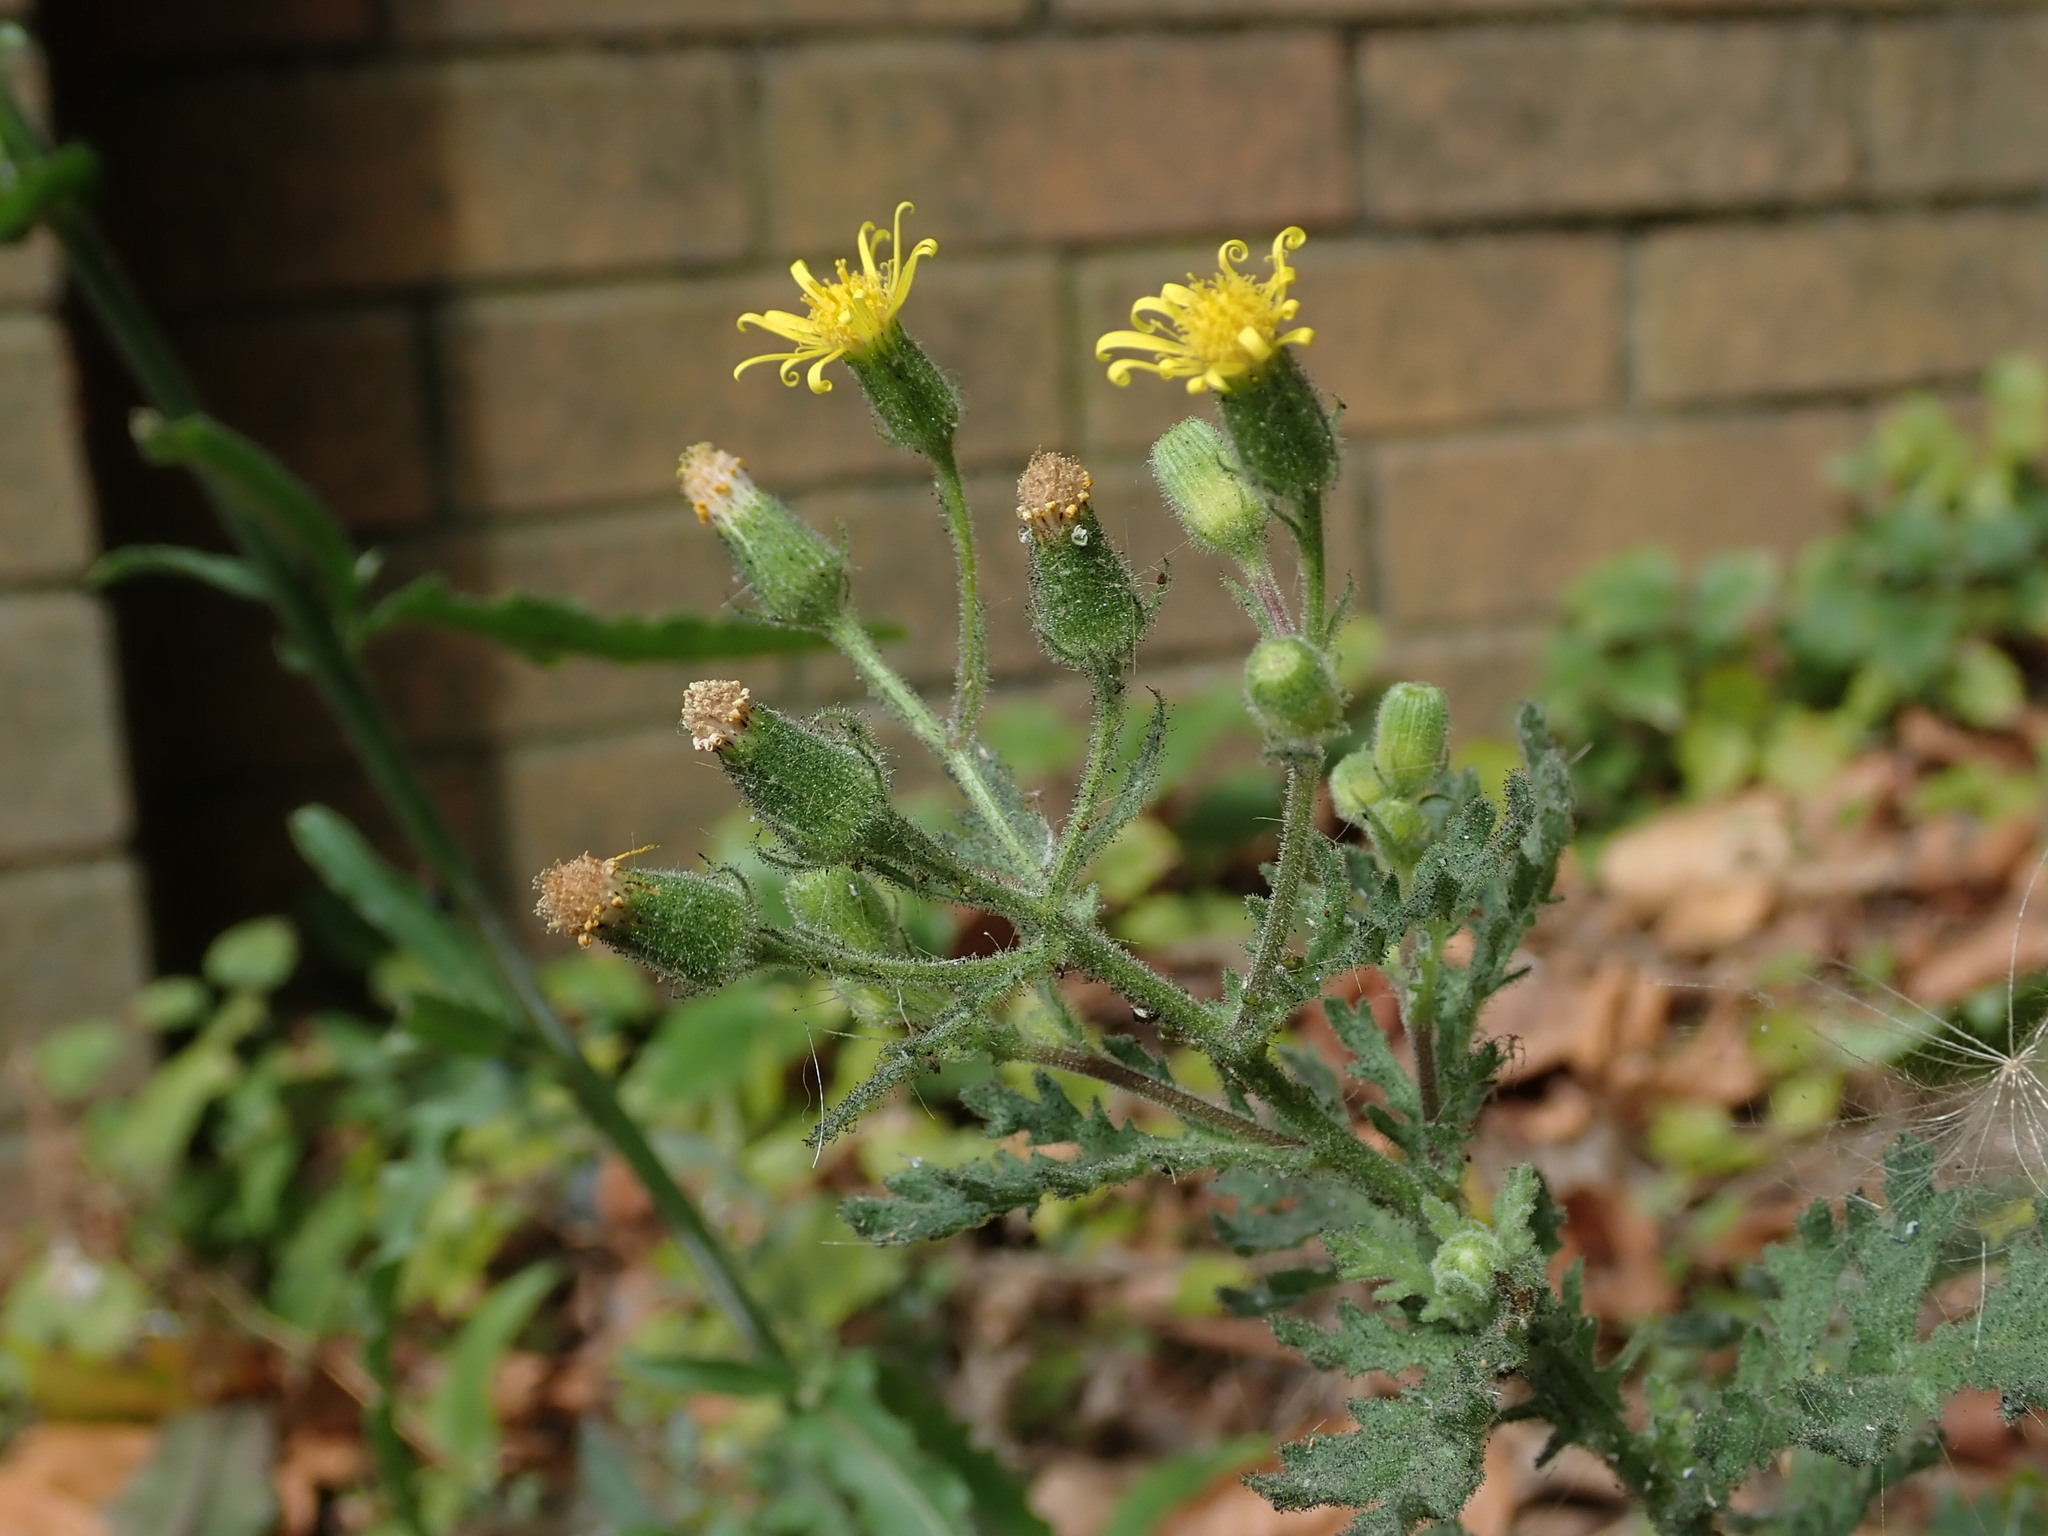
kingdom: Plantae
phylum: Tracheophyta
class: Magnoliopsida
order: Asterales
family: Asteraceae
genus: Senecio
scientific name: Senecio viscosus
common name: Sticky groundsel
